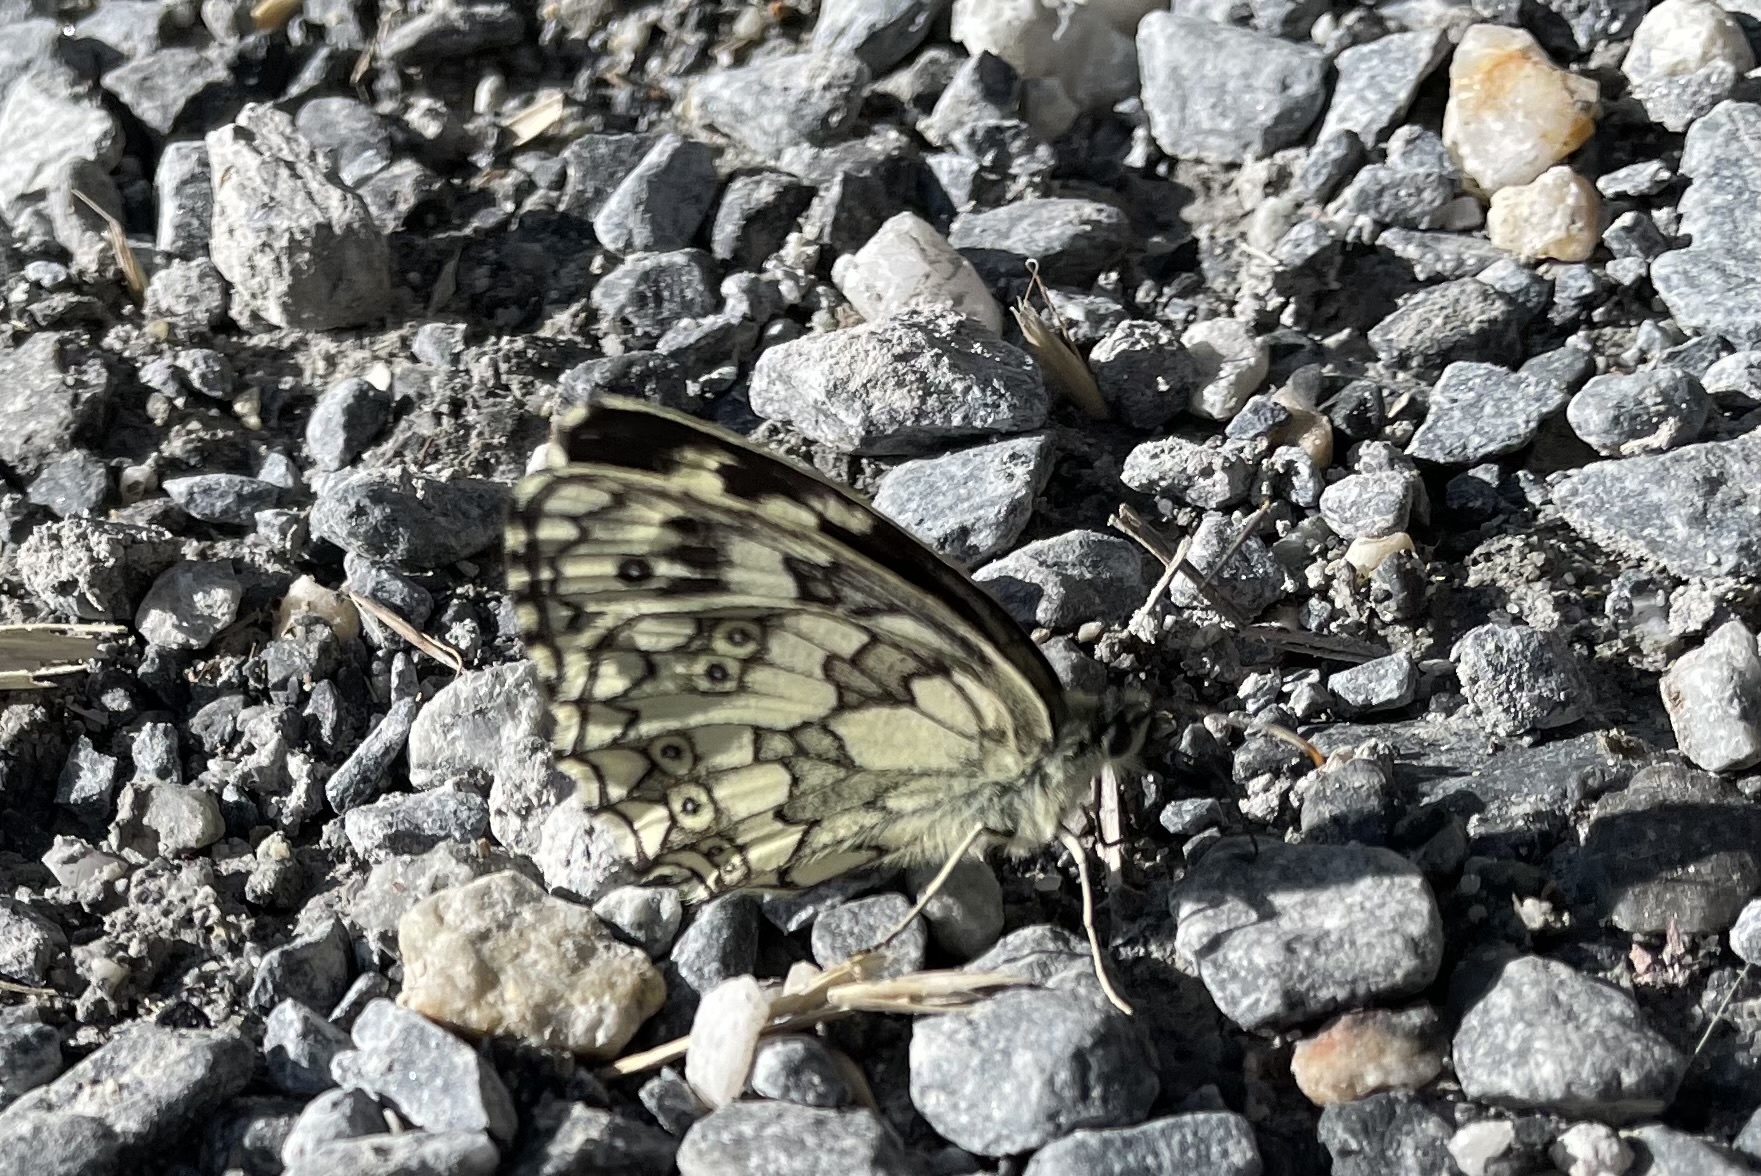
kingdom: Animalia
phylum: Arthropoda
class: Insecta
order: Lepidoptera
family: Nymphalidae
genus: Melanargia
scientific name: Melanargia galathea
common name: Marbled white
